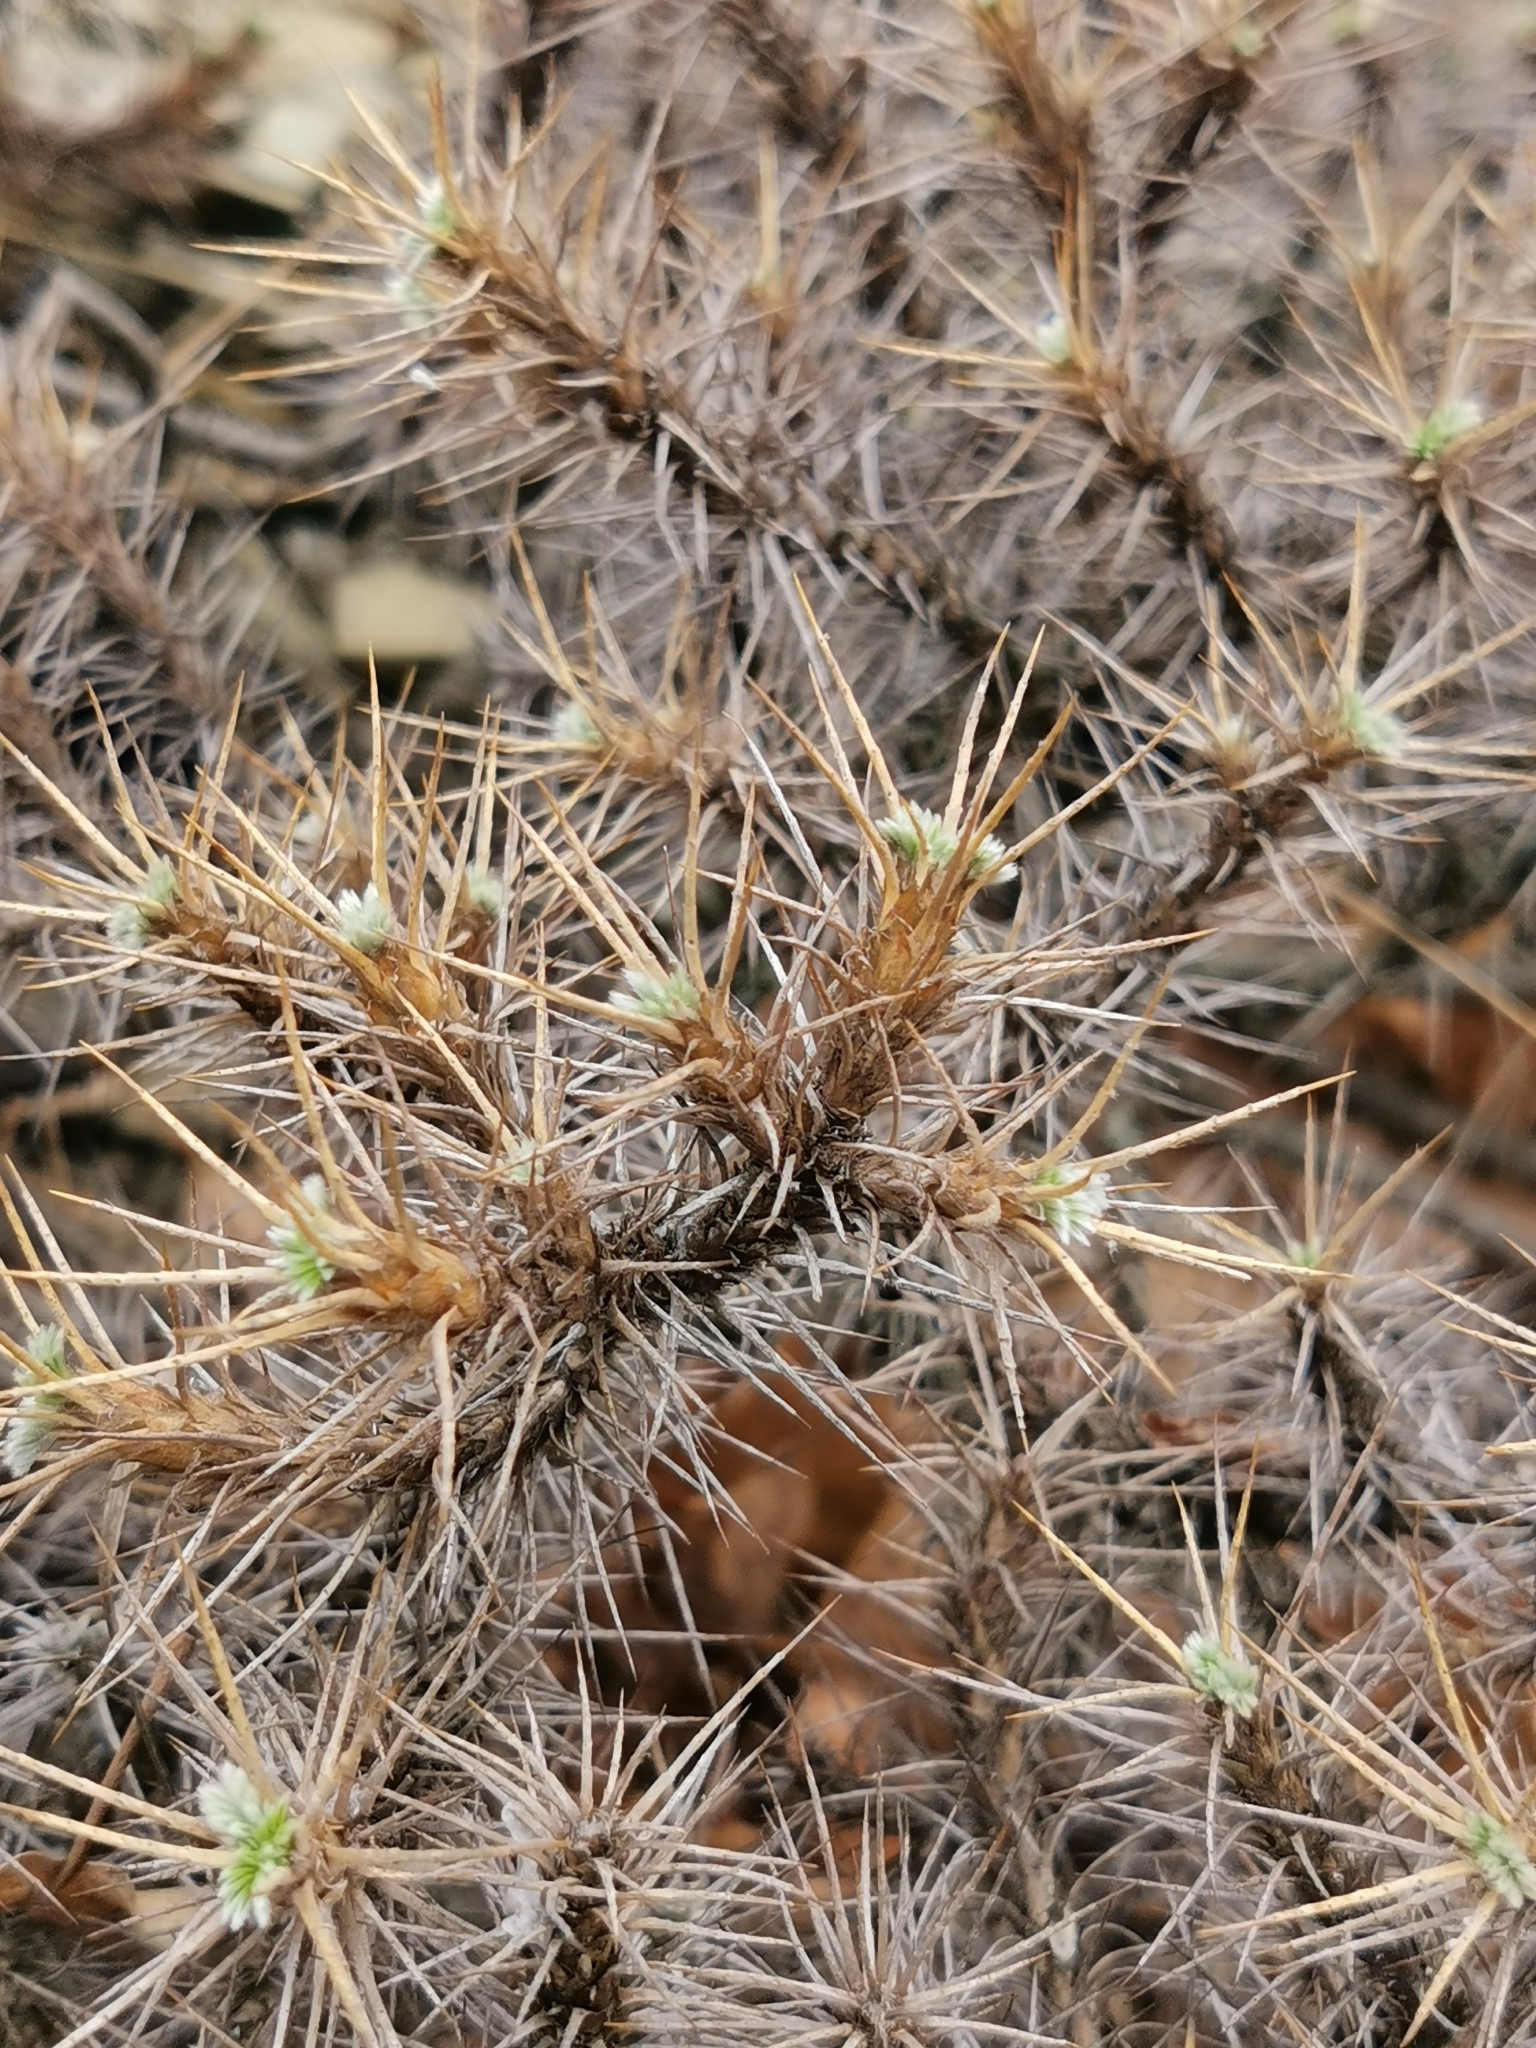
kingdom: Plantae
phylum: Tracheophyta
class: Magnoliopsida
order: Fabales
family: Fabaceae
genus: Astragalus
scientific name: Astragalus arnacanthoides
